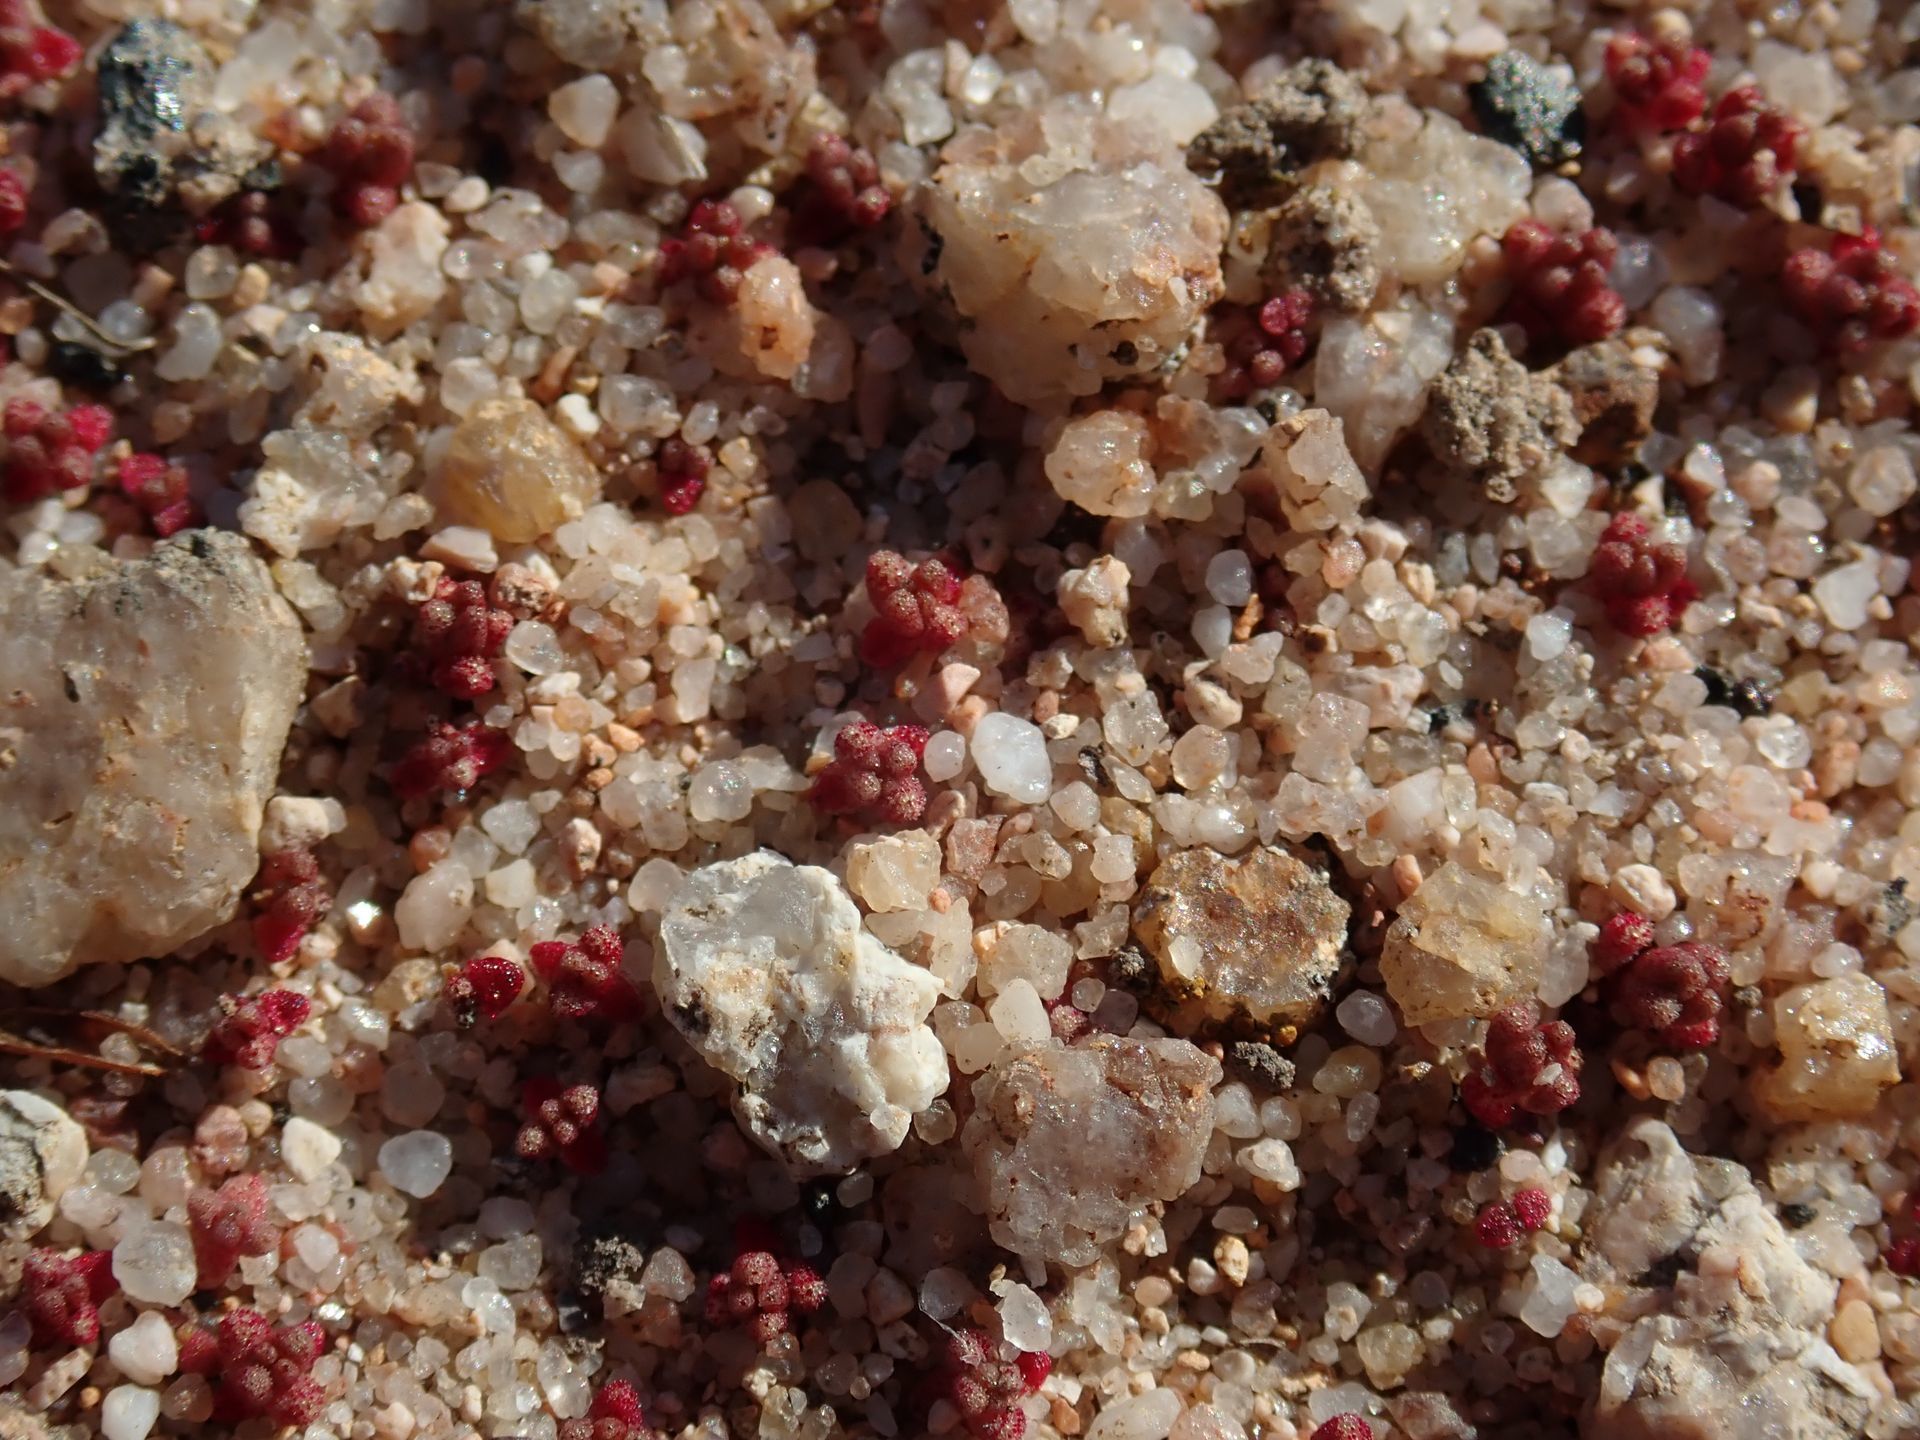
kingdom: Plantae
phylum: Tracheophyta
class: Magnoliopsida
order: Saxifragales
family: Crassulaceae
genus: Crassula
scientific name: Crassula
